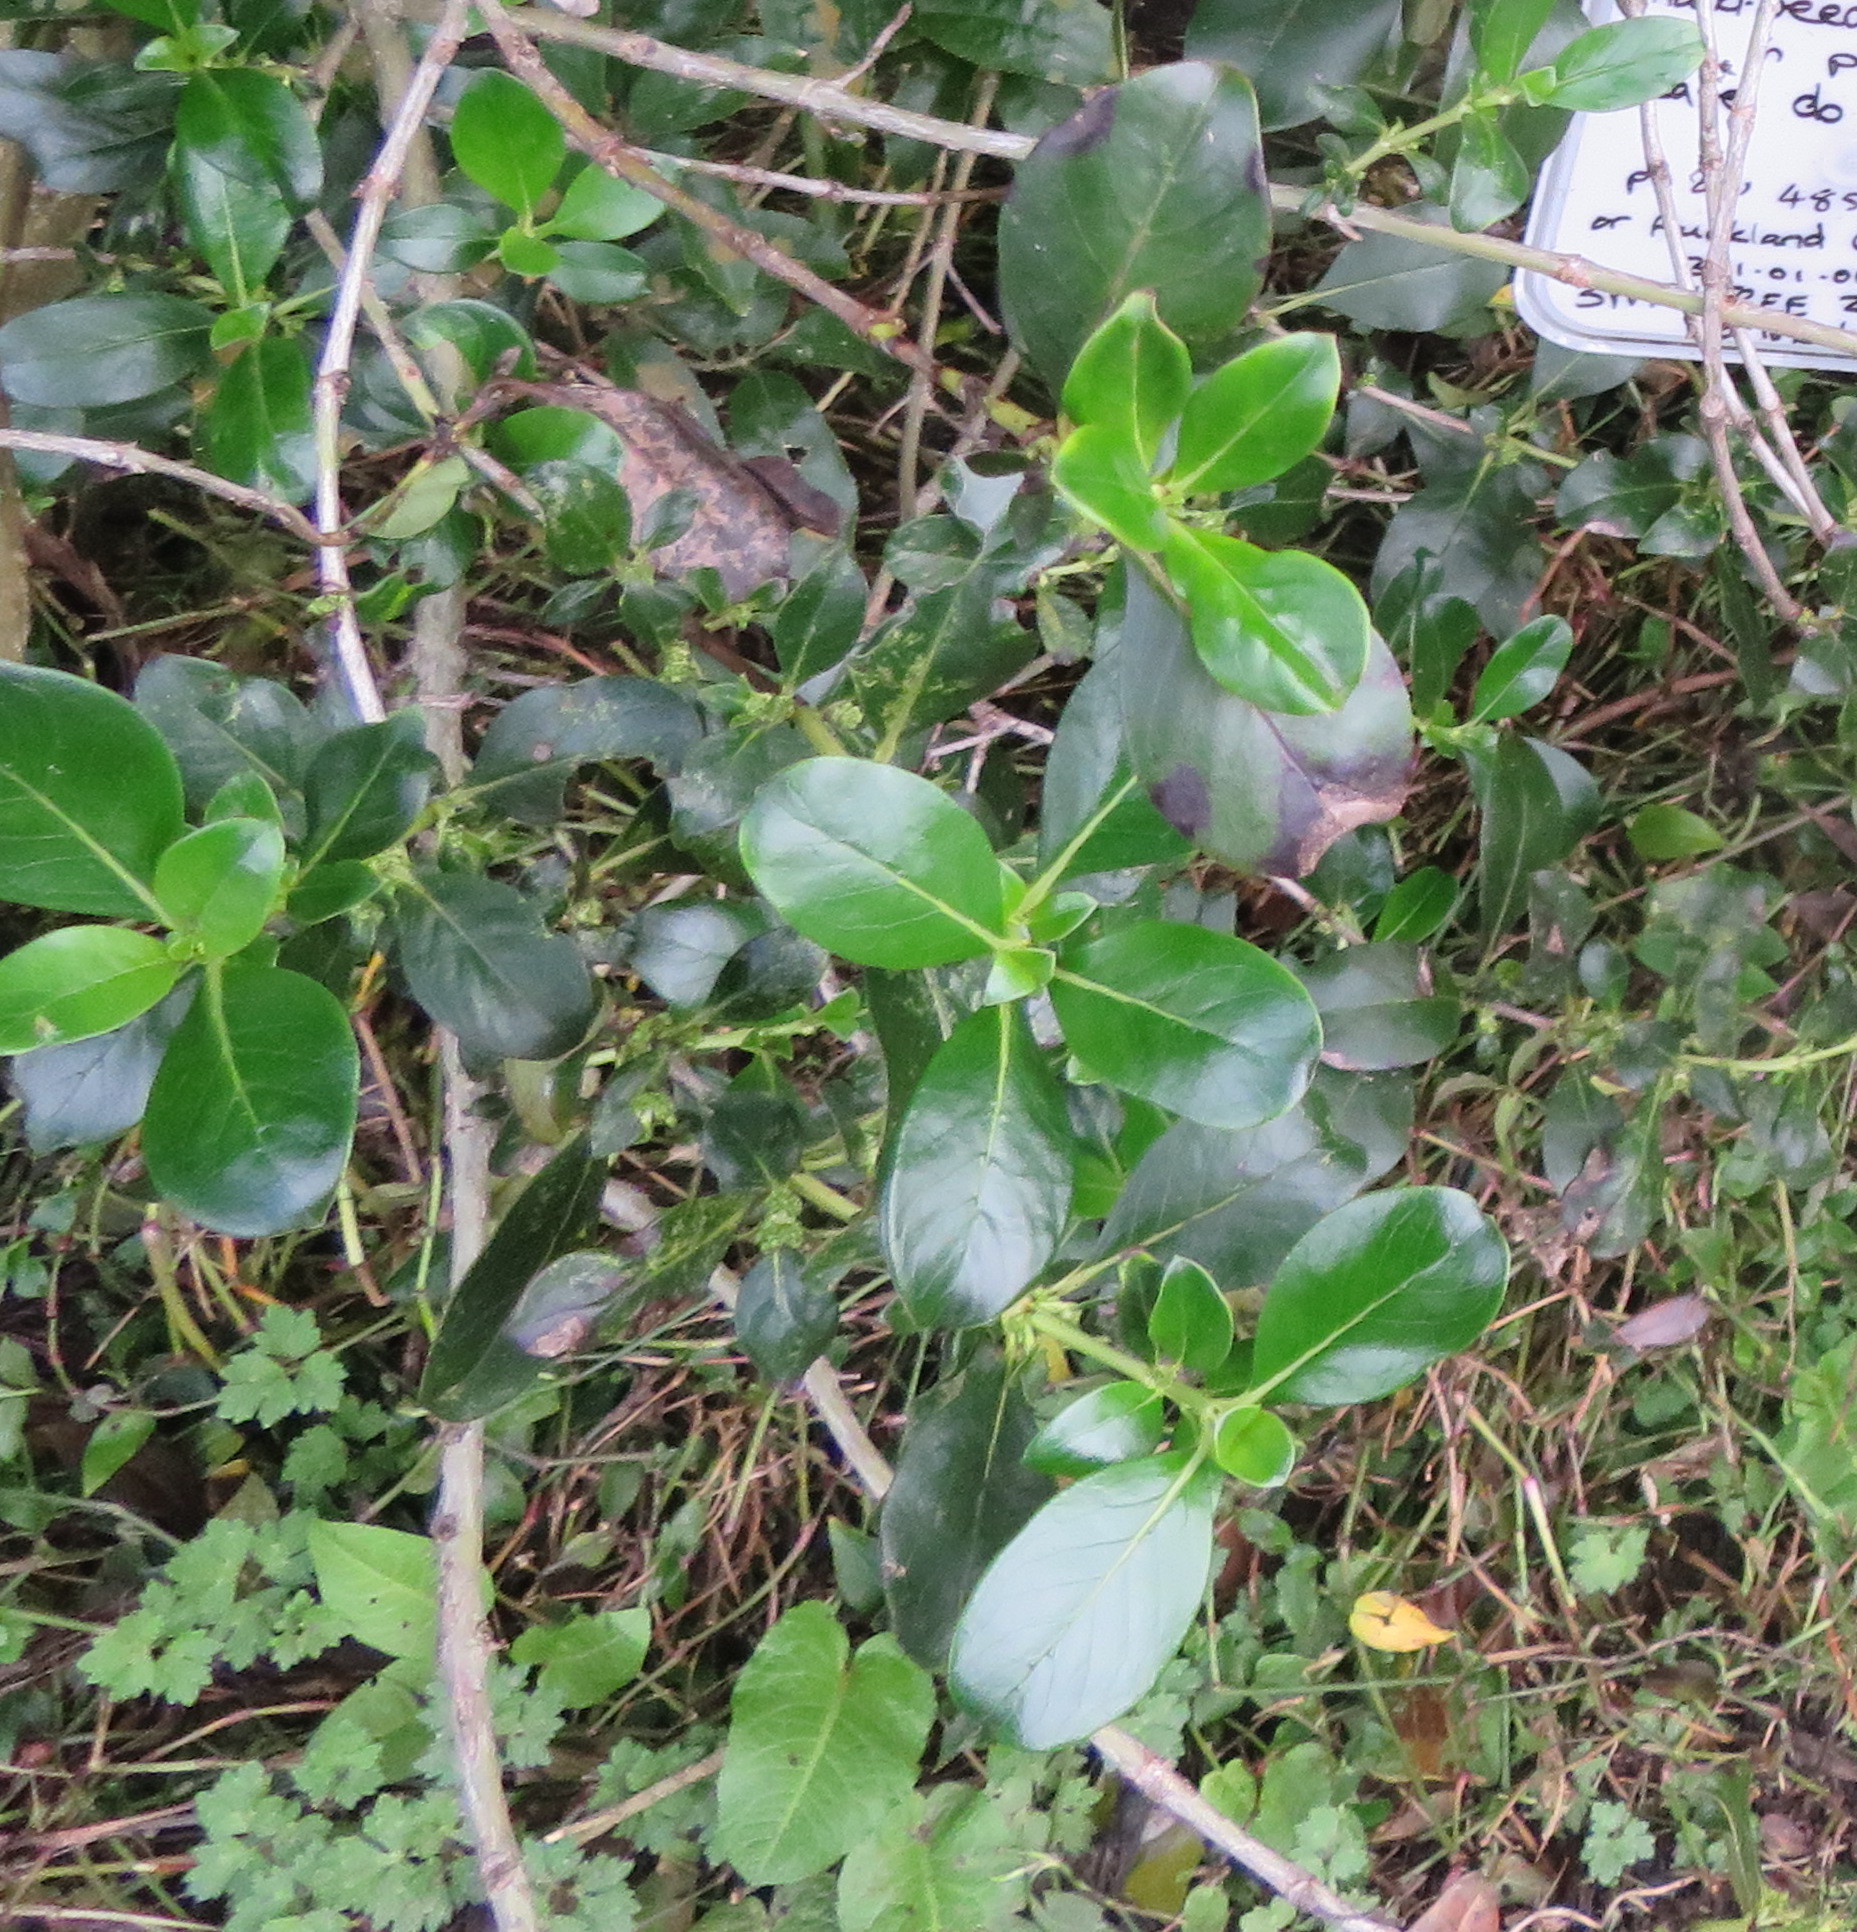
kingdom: Plantae
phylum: Tracheophyta
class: Magnoliopsida
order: Gentianales
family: Rubiaceae
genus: Coprosma
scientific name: Coprosma robusta
